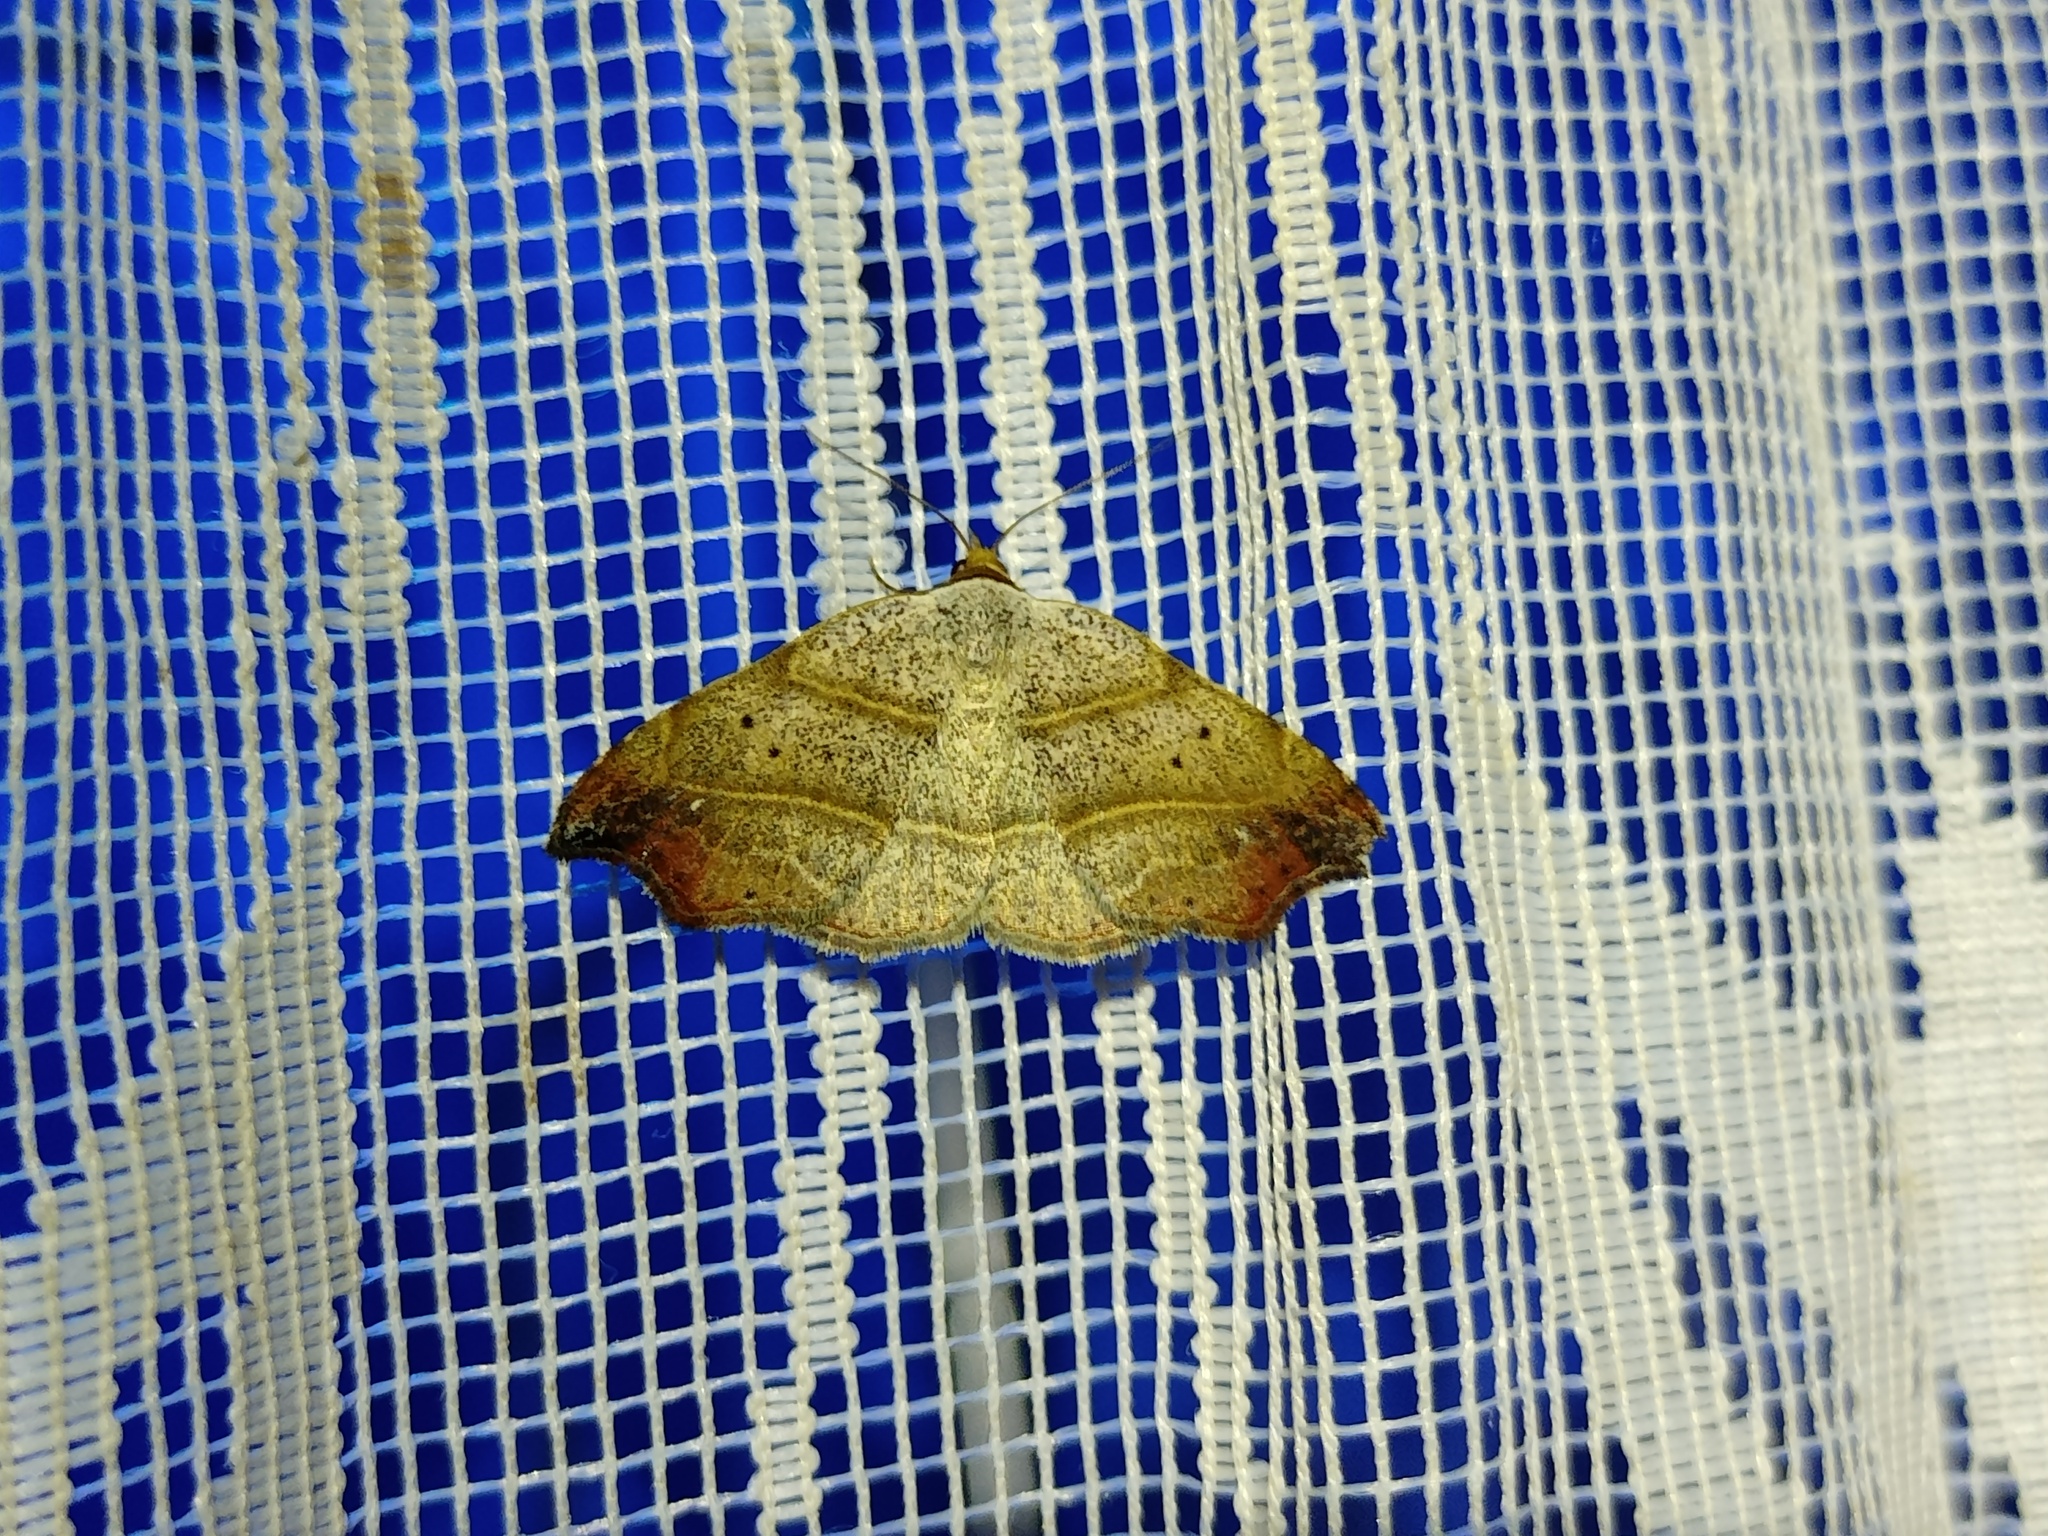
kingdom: Animalia
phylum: Arthropoda
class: Insecta
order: Lepidoptera
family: Erebidae
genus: Laspeyria
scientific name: Laspeyria flexula
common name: Beautiful hook-tip
